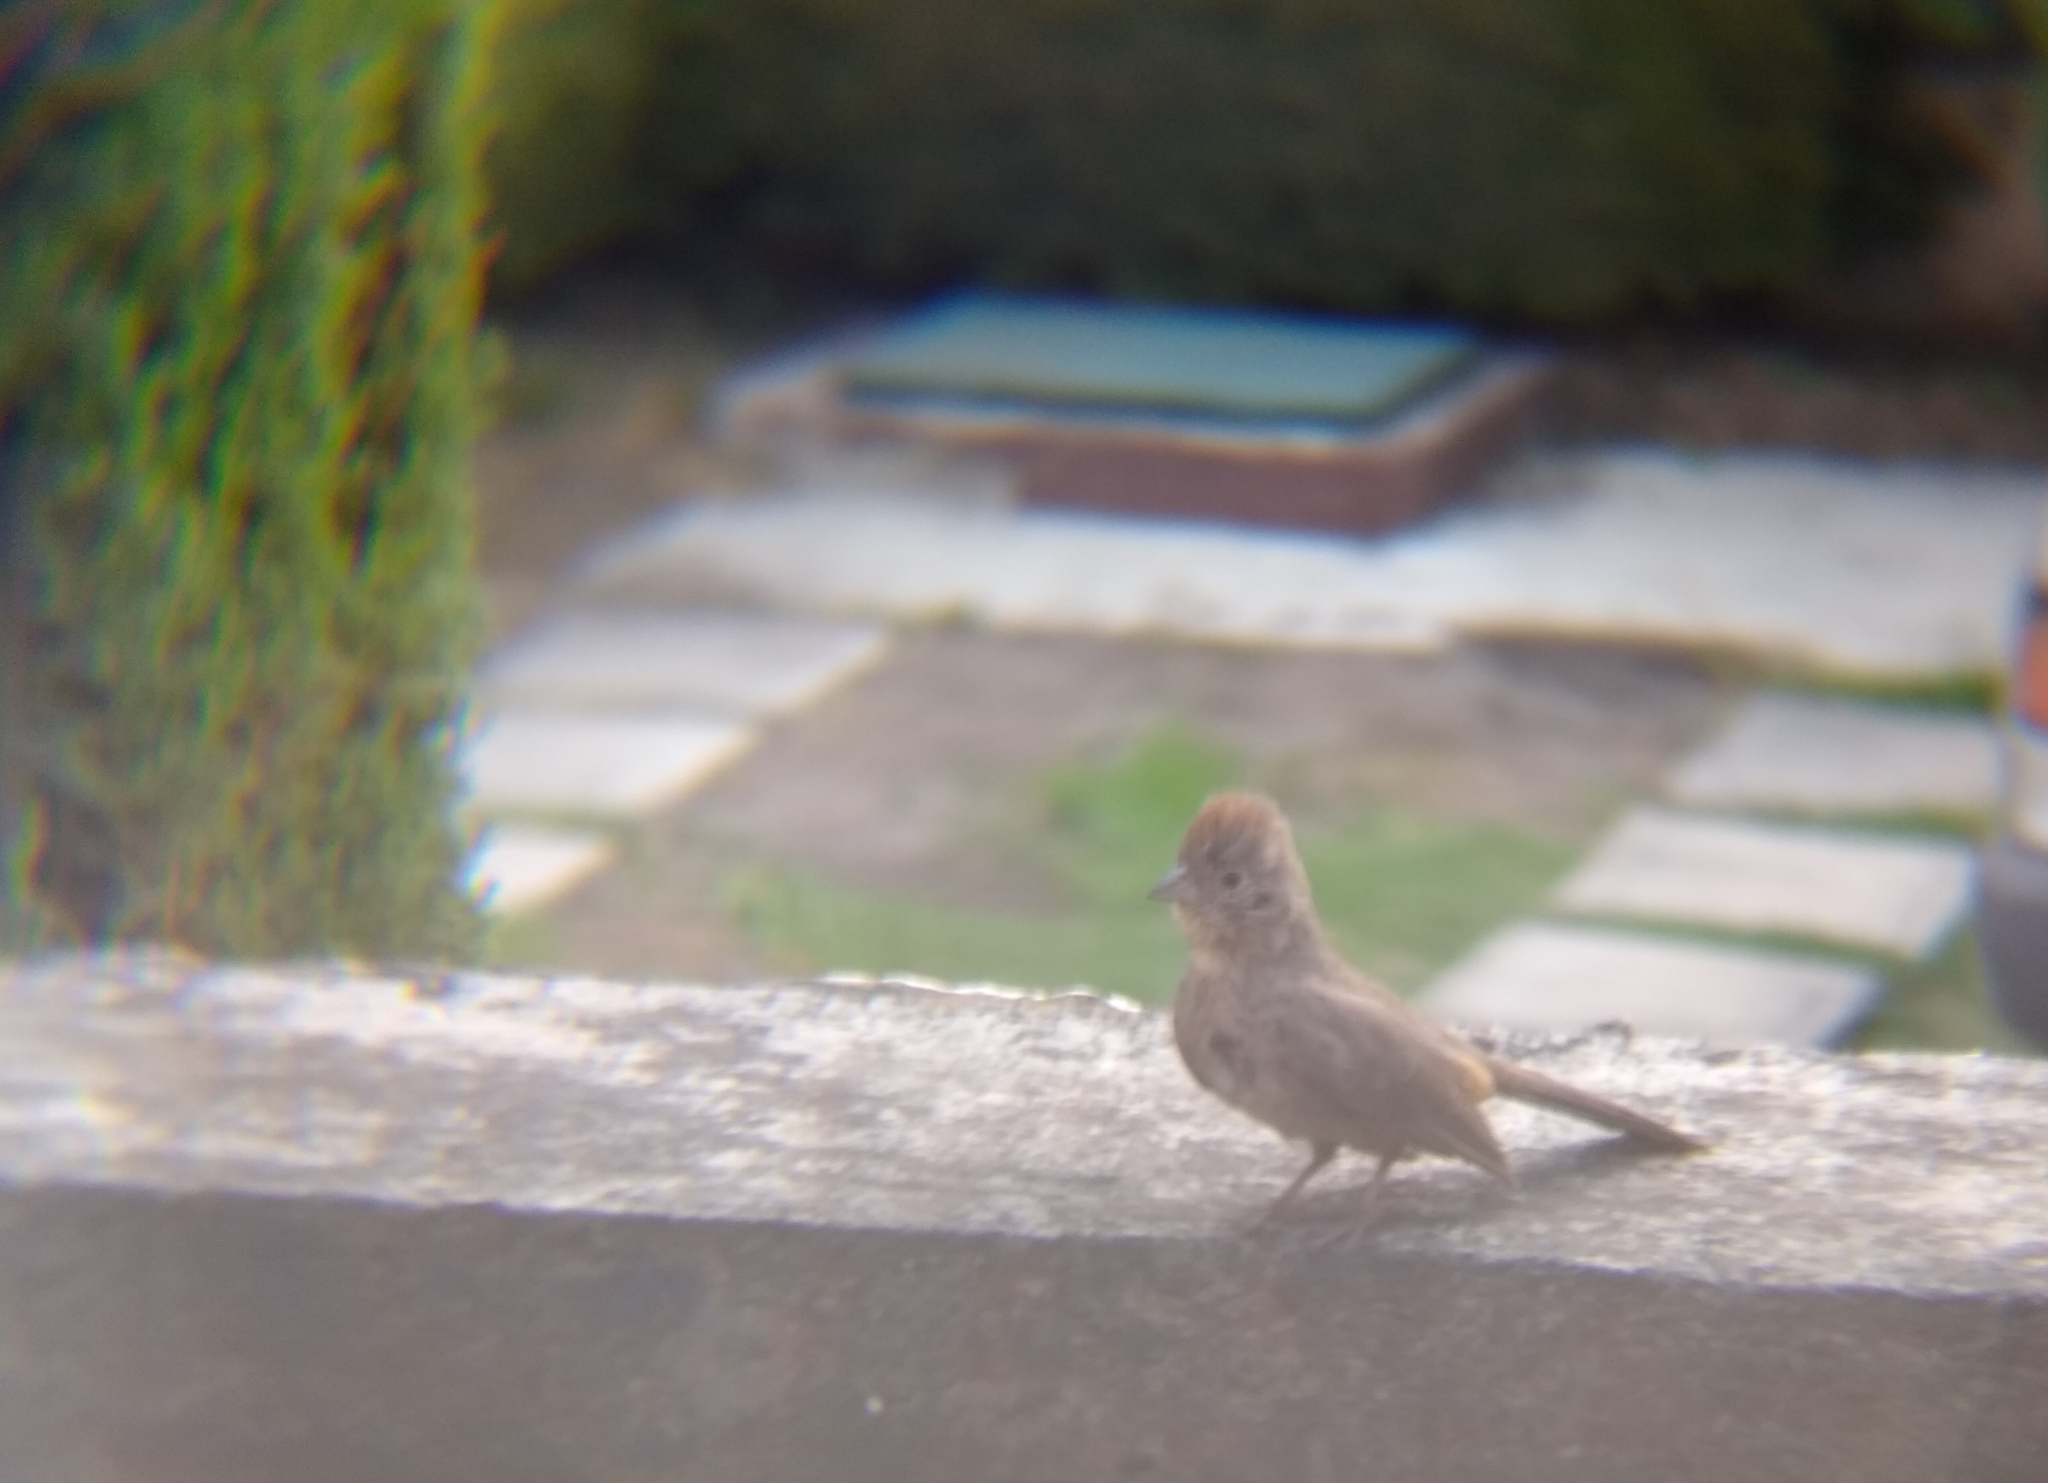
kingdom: Animalia
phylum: Chordata
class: Aves
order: Passeriformes
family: Passerellidae
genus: Melozone
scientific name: Melozone fusca
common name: Canyon towhee
